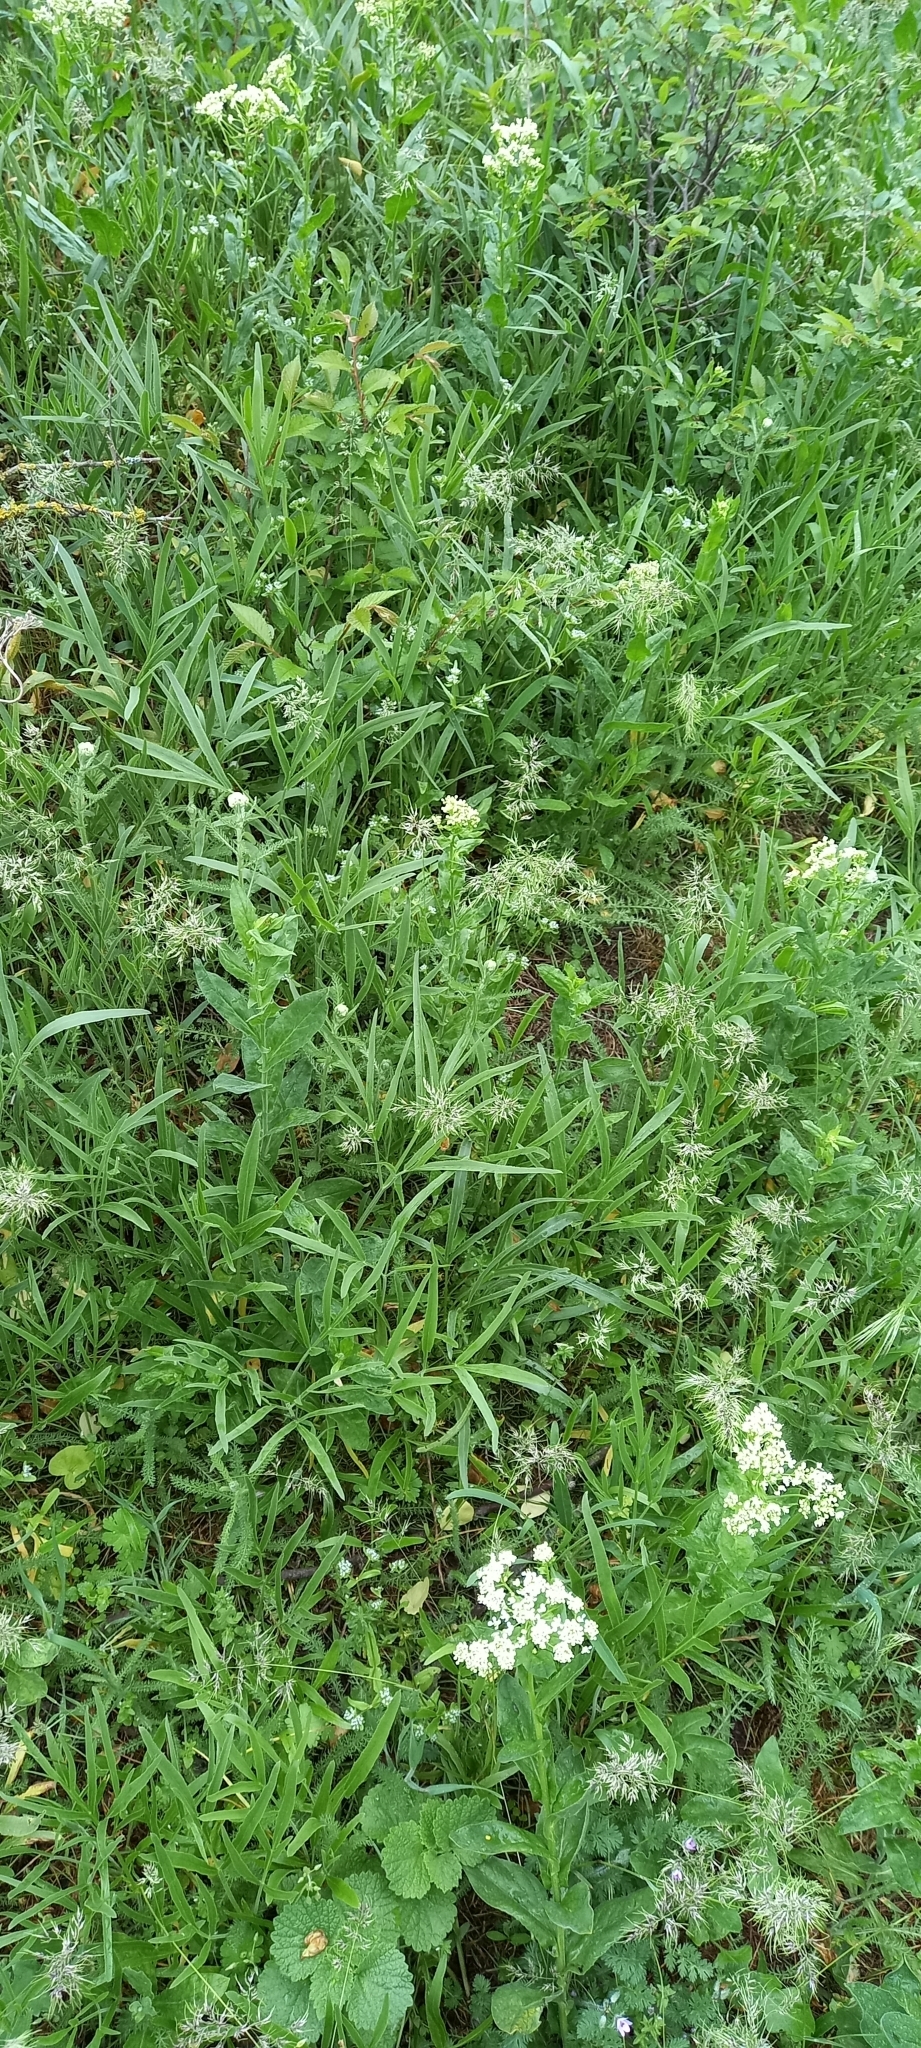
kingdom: Plantae
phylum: Tracheophyta
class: Magnoliopsida
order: Apiales
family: Apiaceae
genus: Falcaria
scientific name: Falcaria vulgaris
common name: Longleaf
